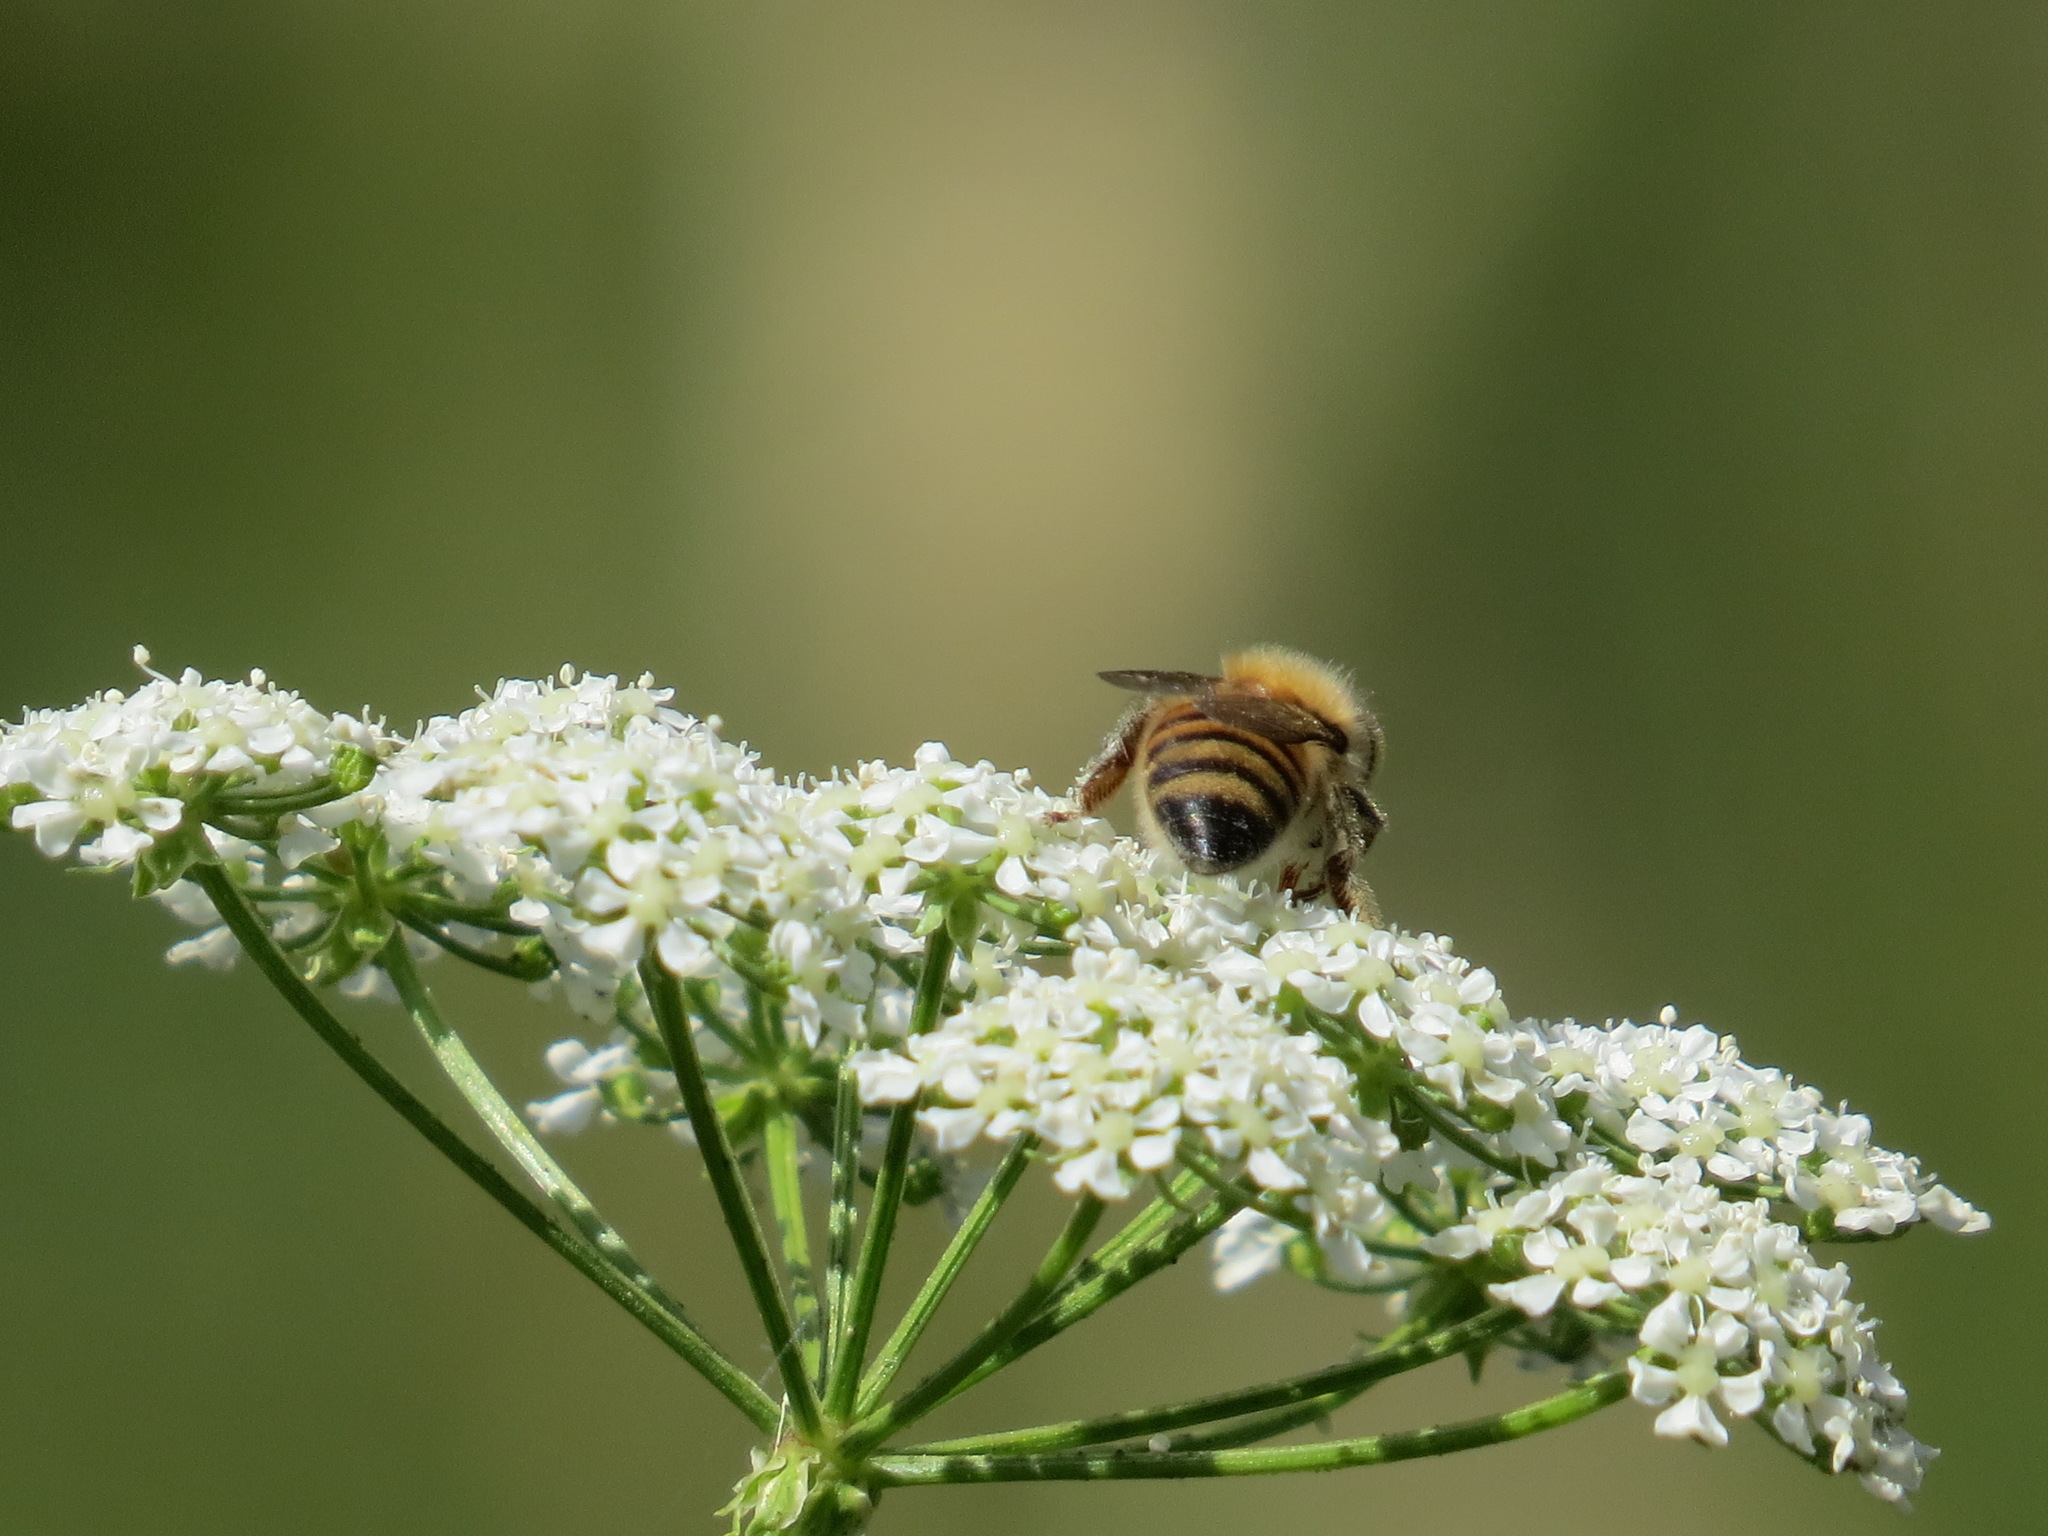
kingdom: Animalia
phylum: Arthropoda
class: Insecta
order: Hymenoptera
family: Apidae
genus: Apis
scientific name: Apis mellifera
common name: Honey bee
